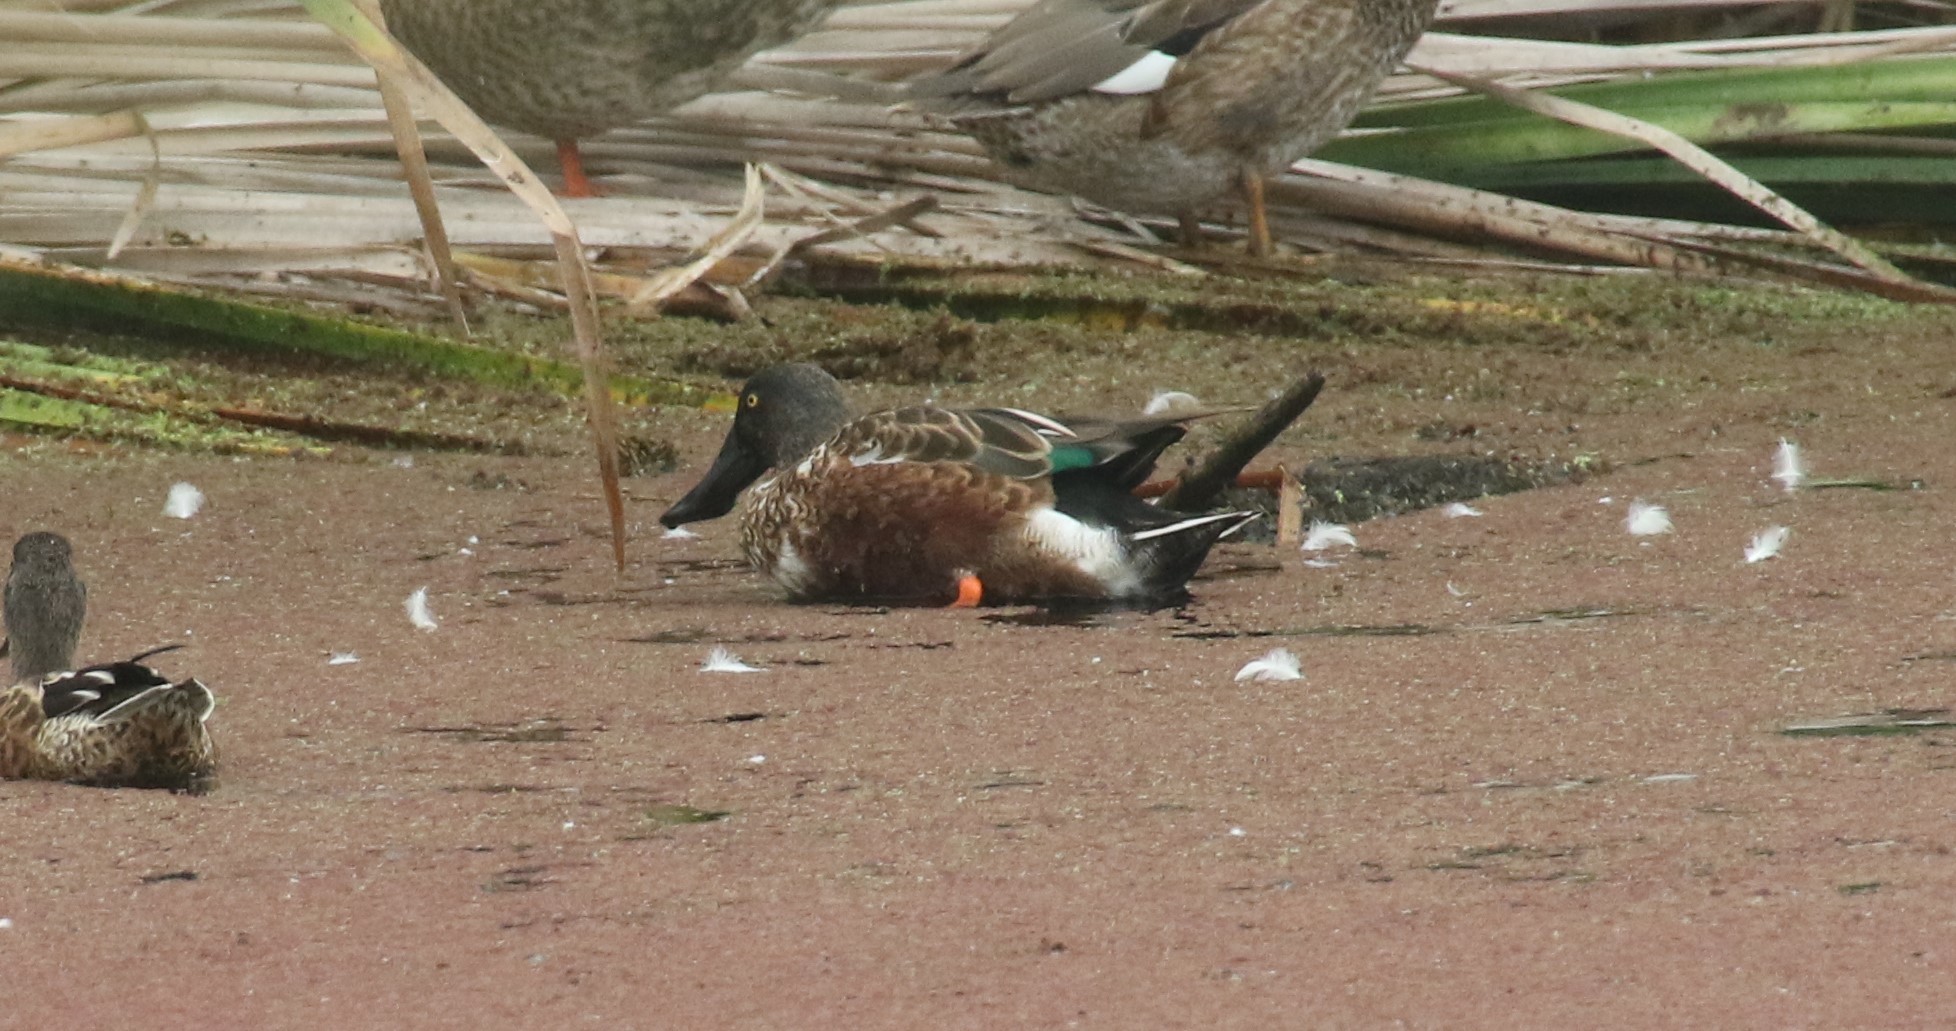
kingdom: Animalia
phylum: Chordata
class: Aves
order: Anseriformes
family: Anatidae
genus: Spatula
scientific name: Spatula clypeata
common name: Northern shoveler
